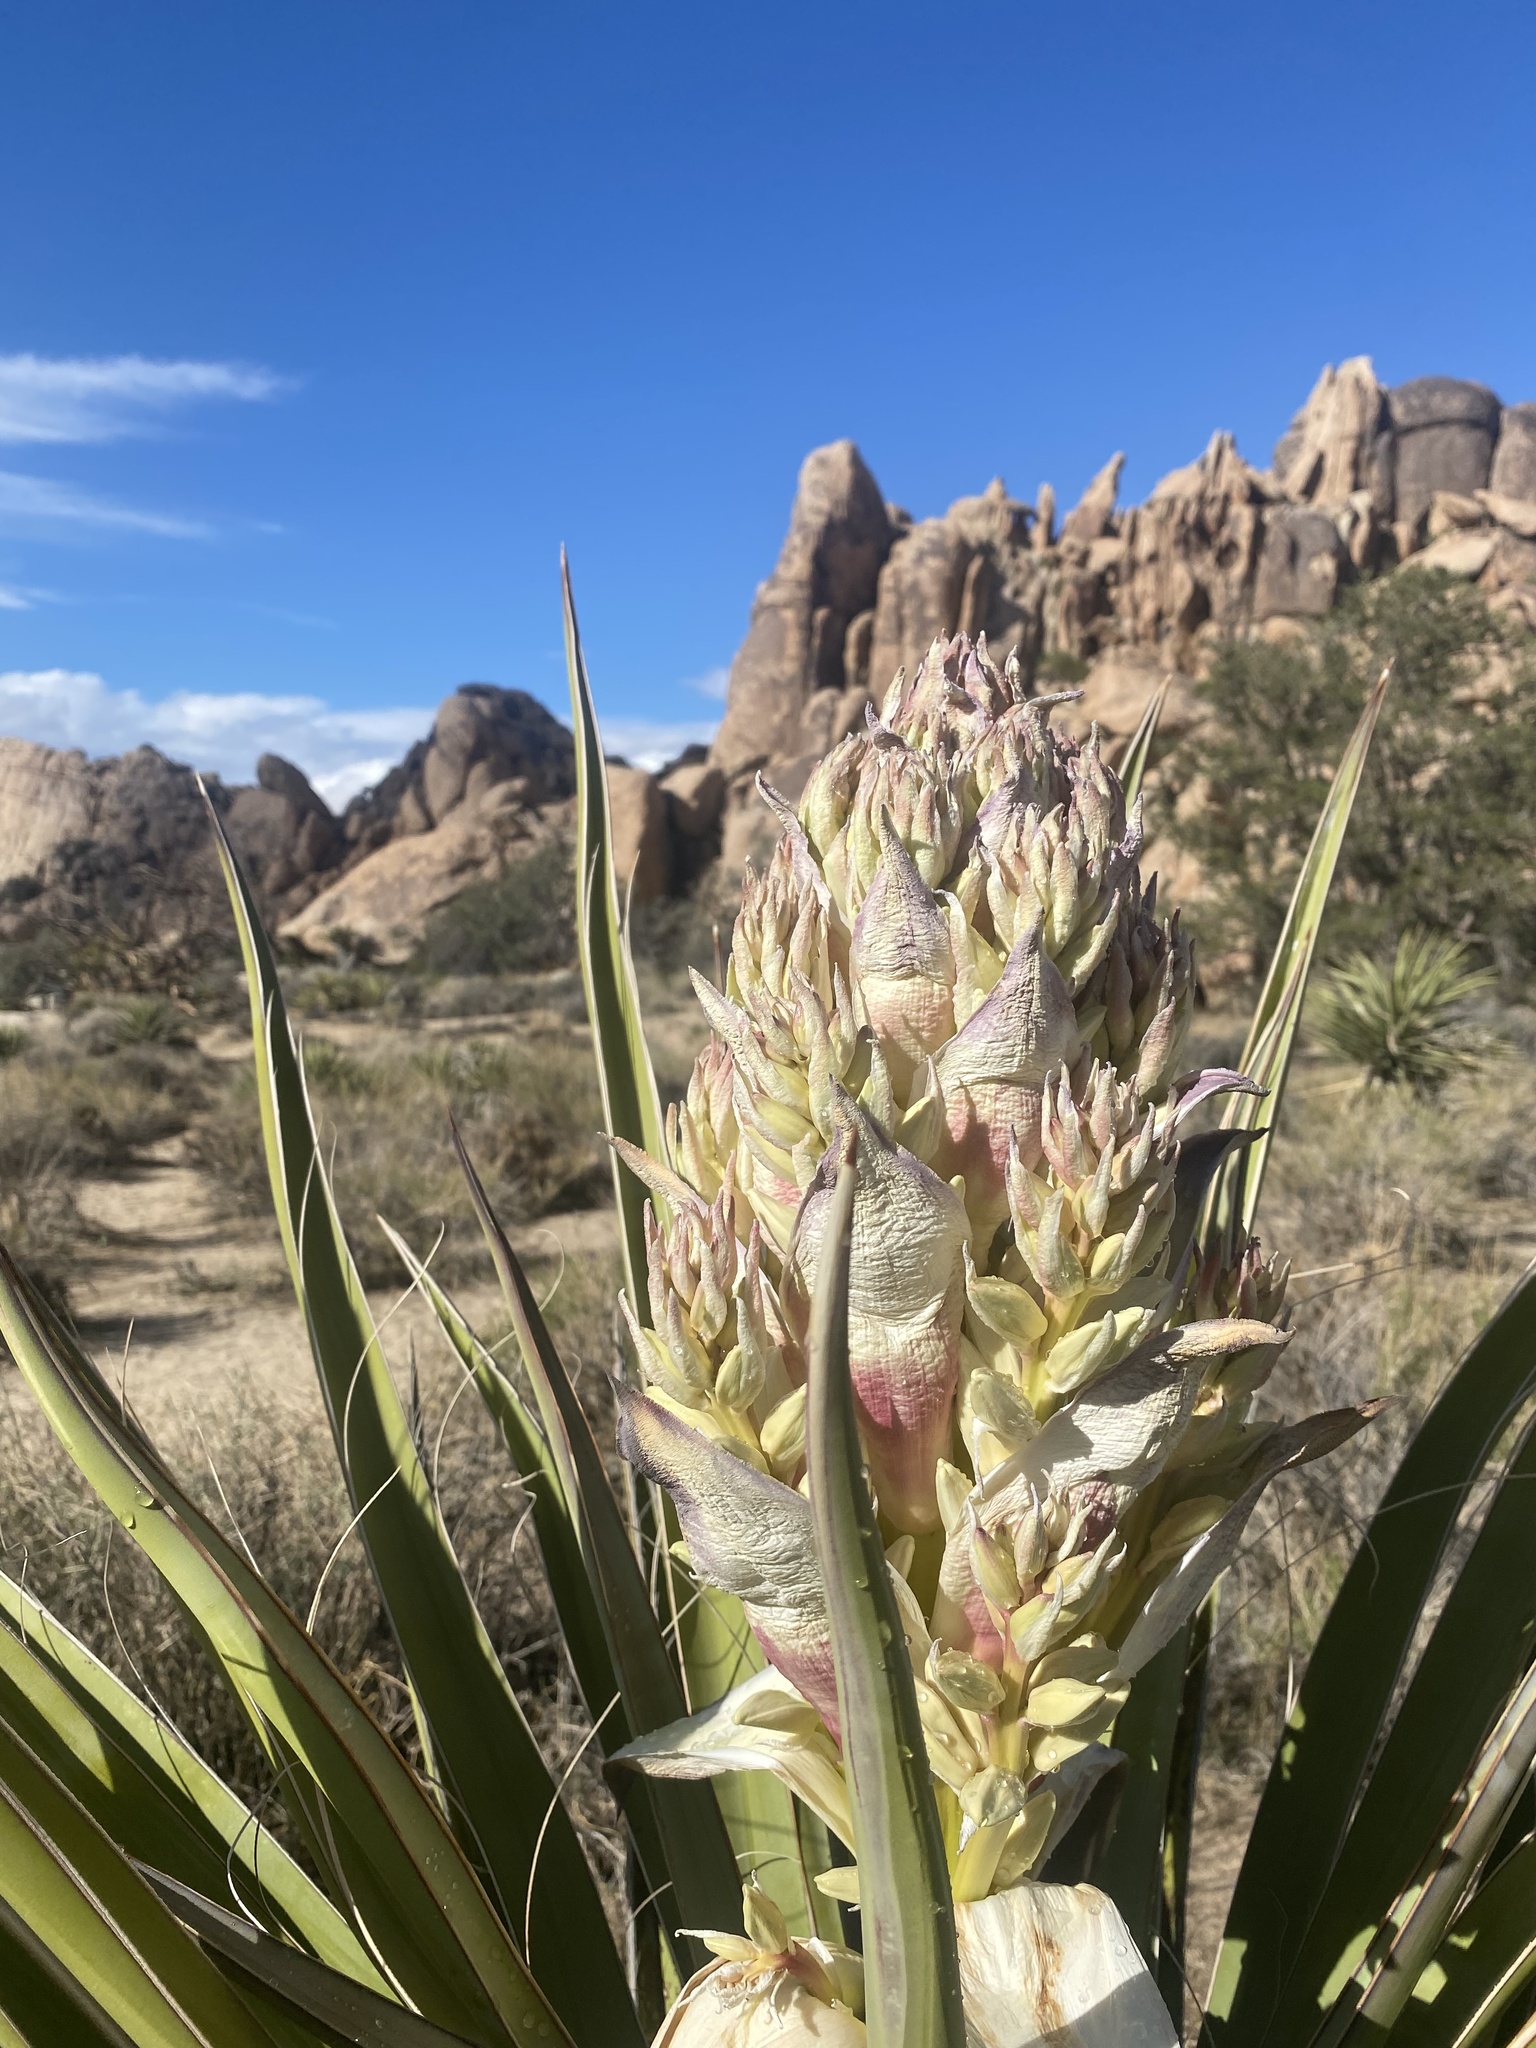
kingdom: Plantae
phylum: Tracheophyta
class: Liliopsida
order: Asparagales
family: Asparagaceae
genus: Yucca
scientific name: Yucca schidigera
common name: Mojave yucca
